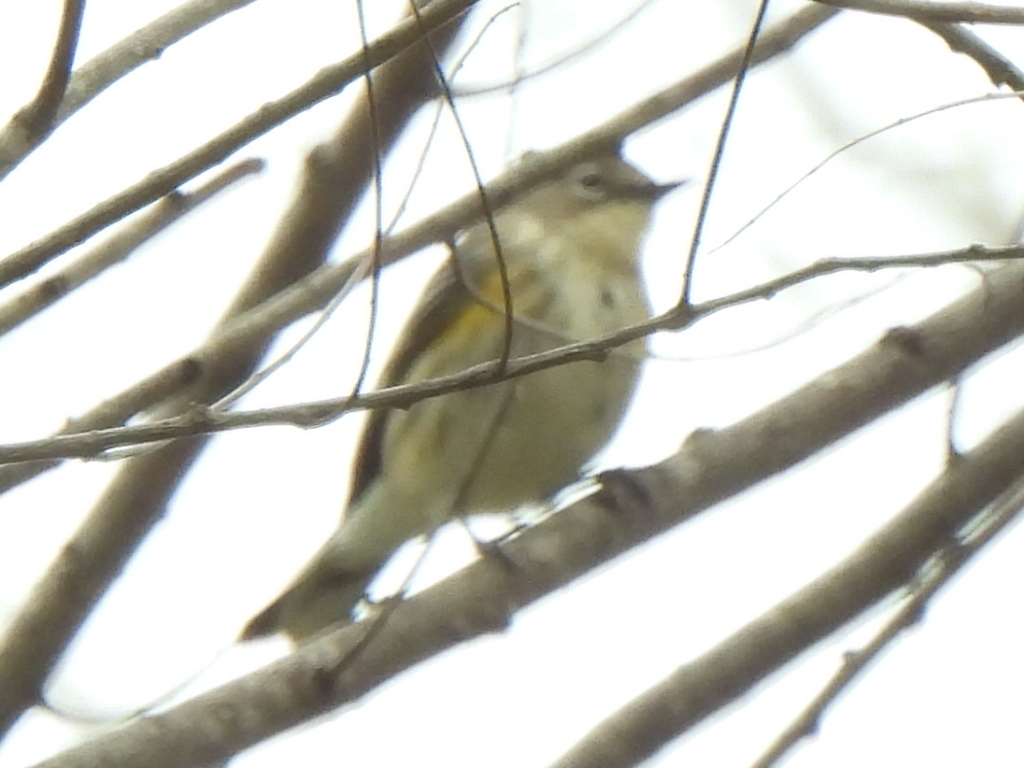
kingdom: Animalia
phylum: Chordata
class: Aves
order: Passeriformes
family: Parulidae
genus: Setophaga
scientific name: Setophaga coronata
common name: Myrtle warbler
